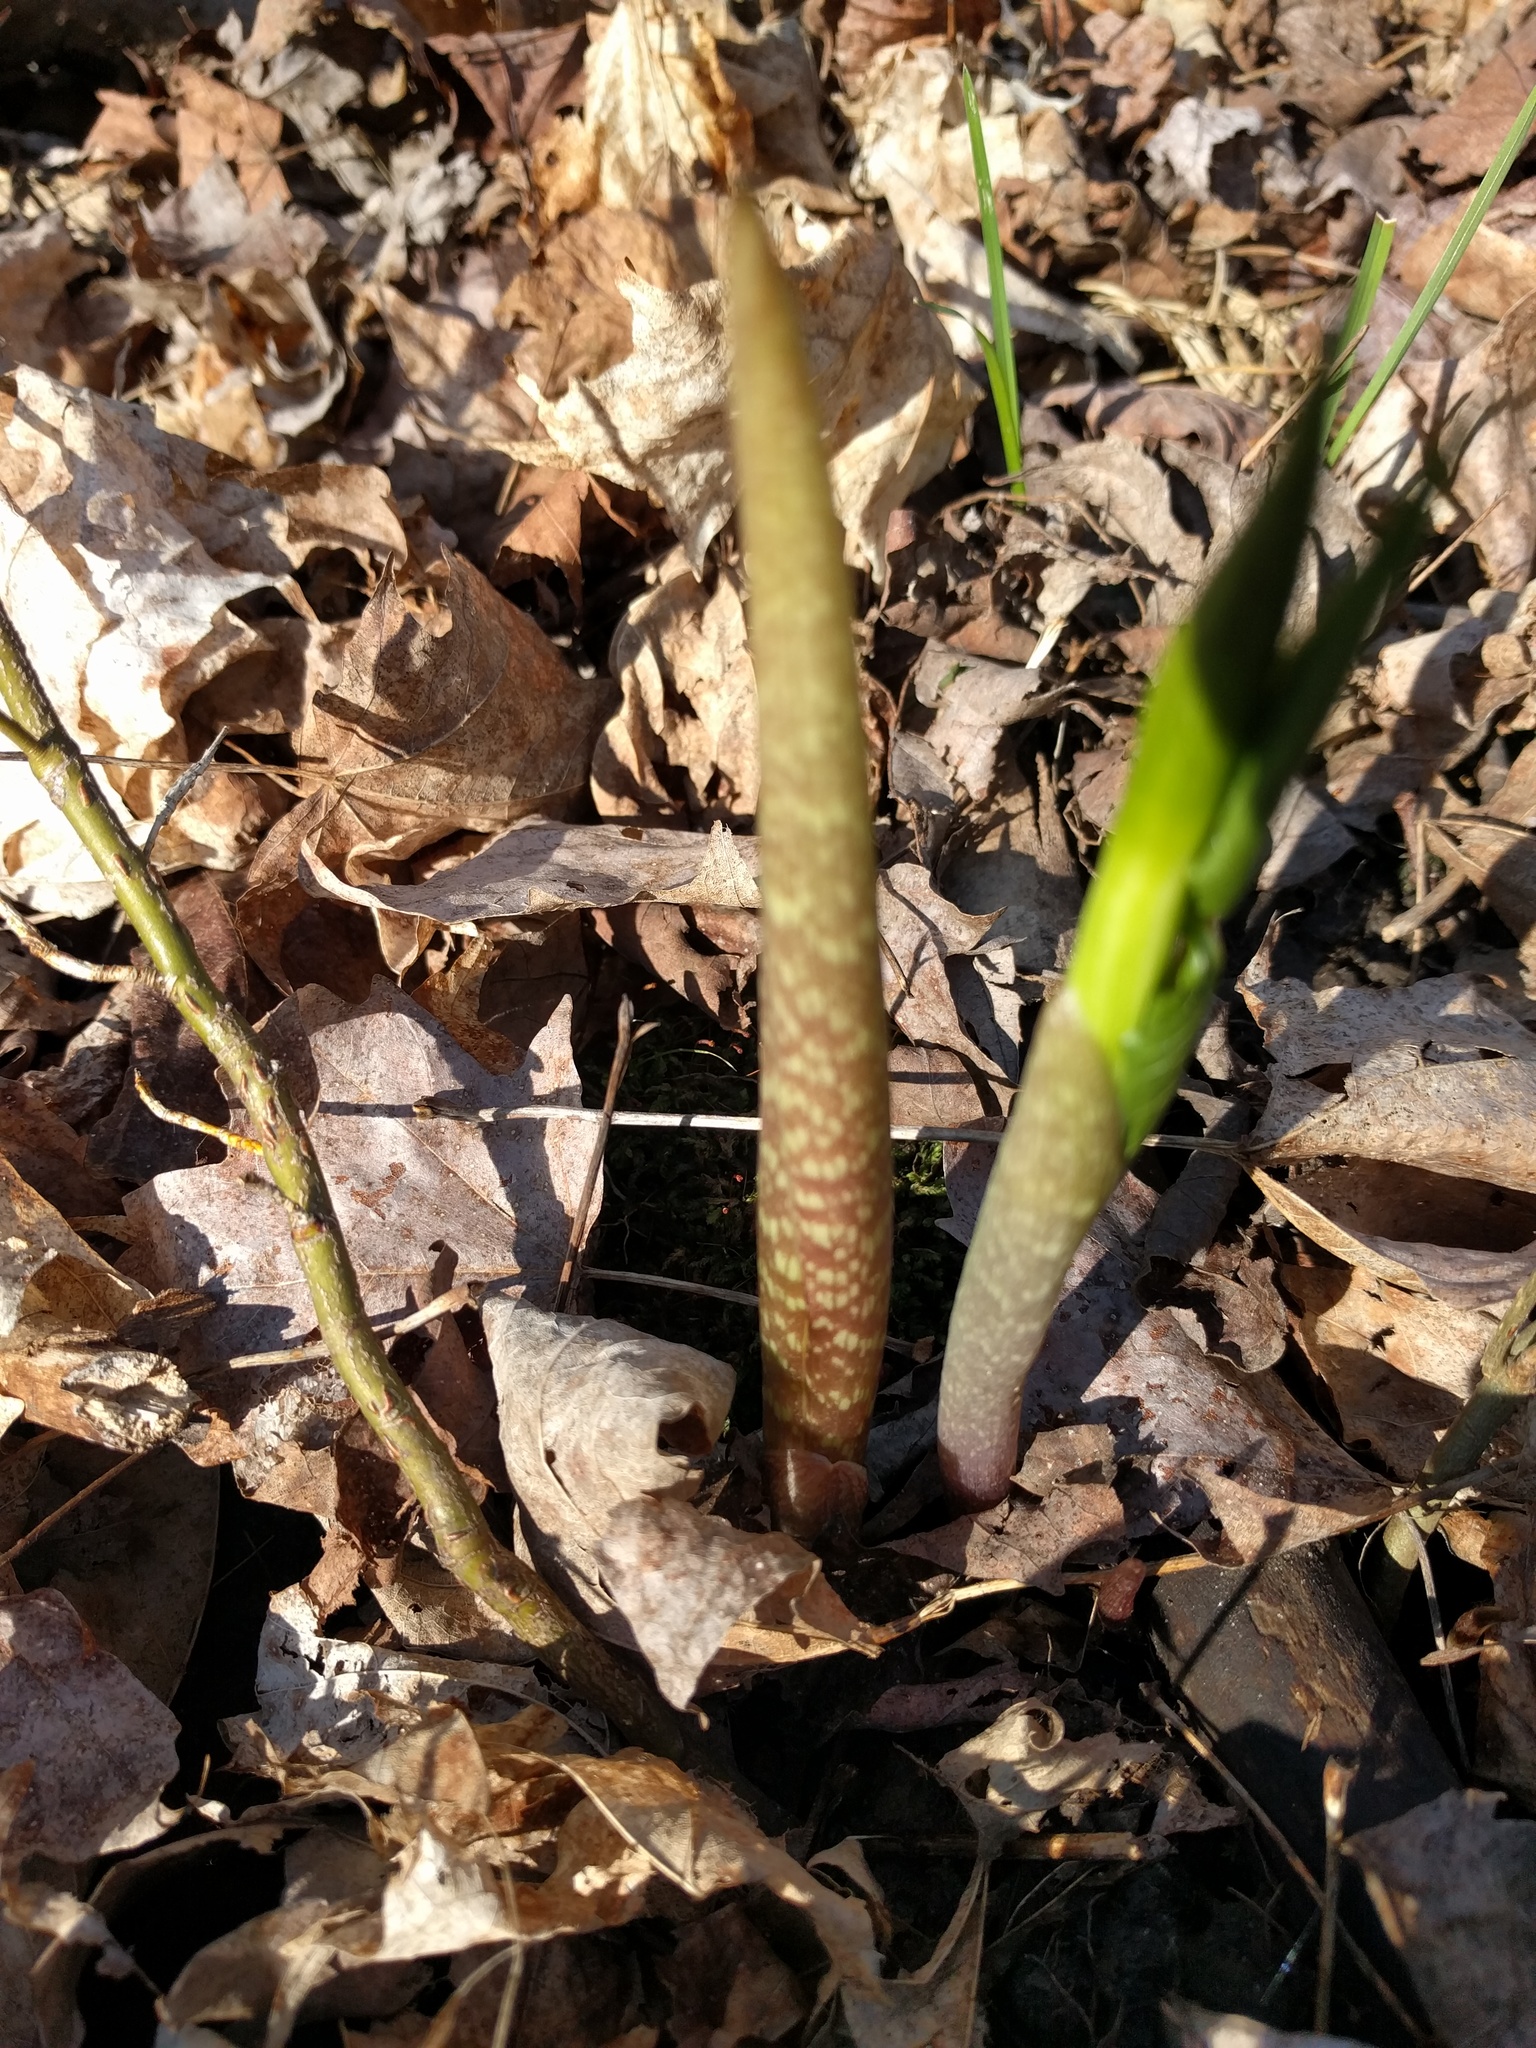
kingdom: Plantae
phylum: Tracheophyta
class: Liliopsida
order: Alismatales
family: Araceae
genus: Arisaema
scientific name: Arisaema triphyllum
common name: Jack-in-the-pulpit
